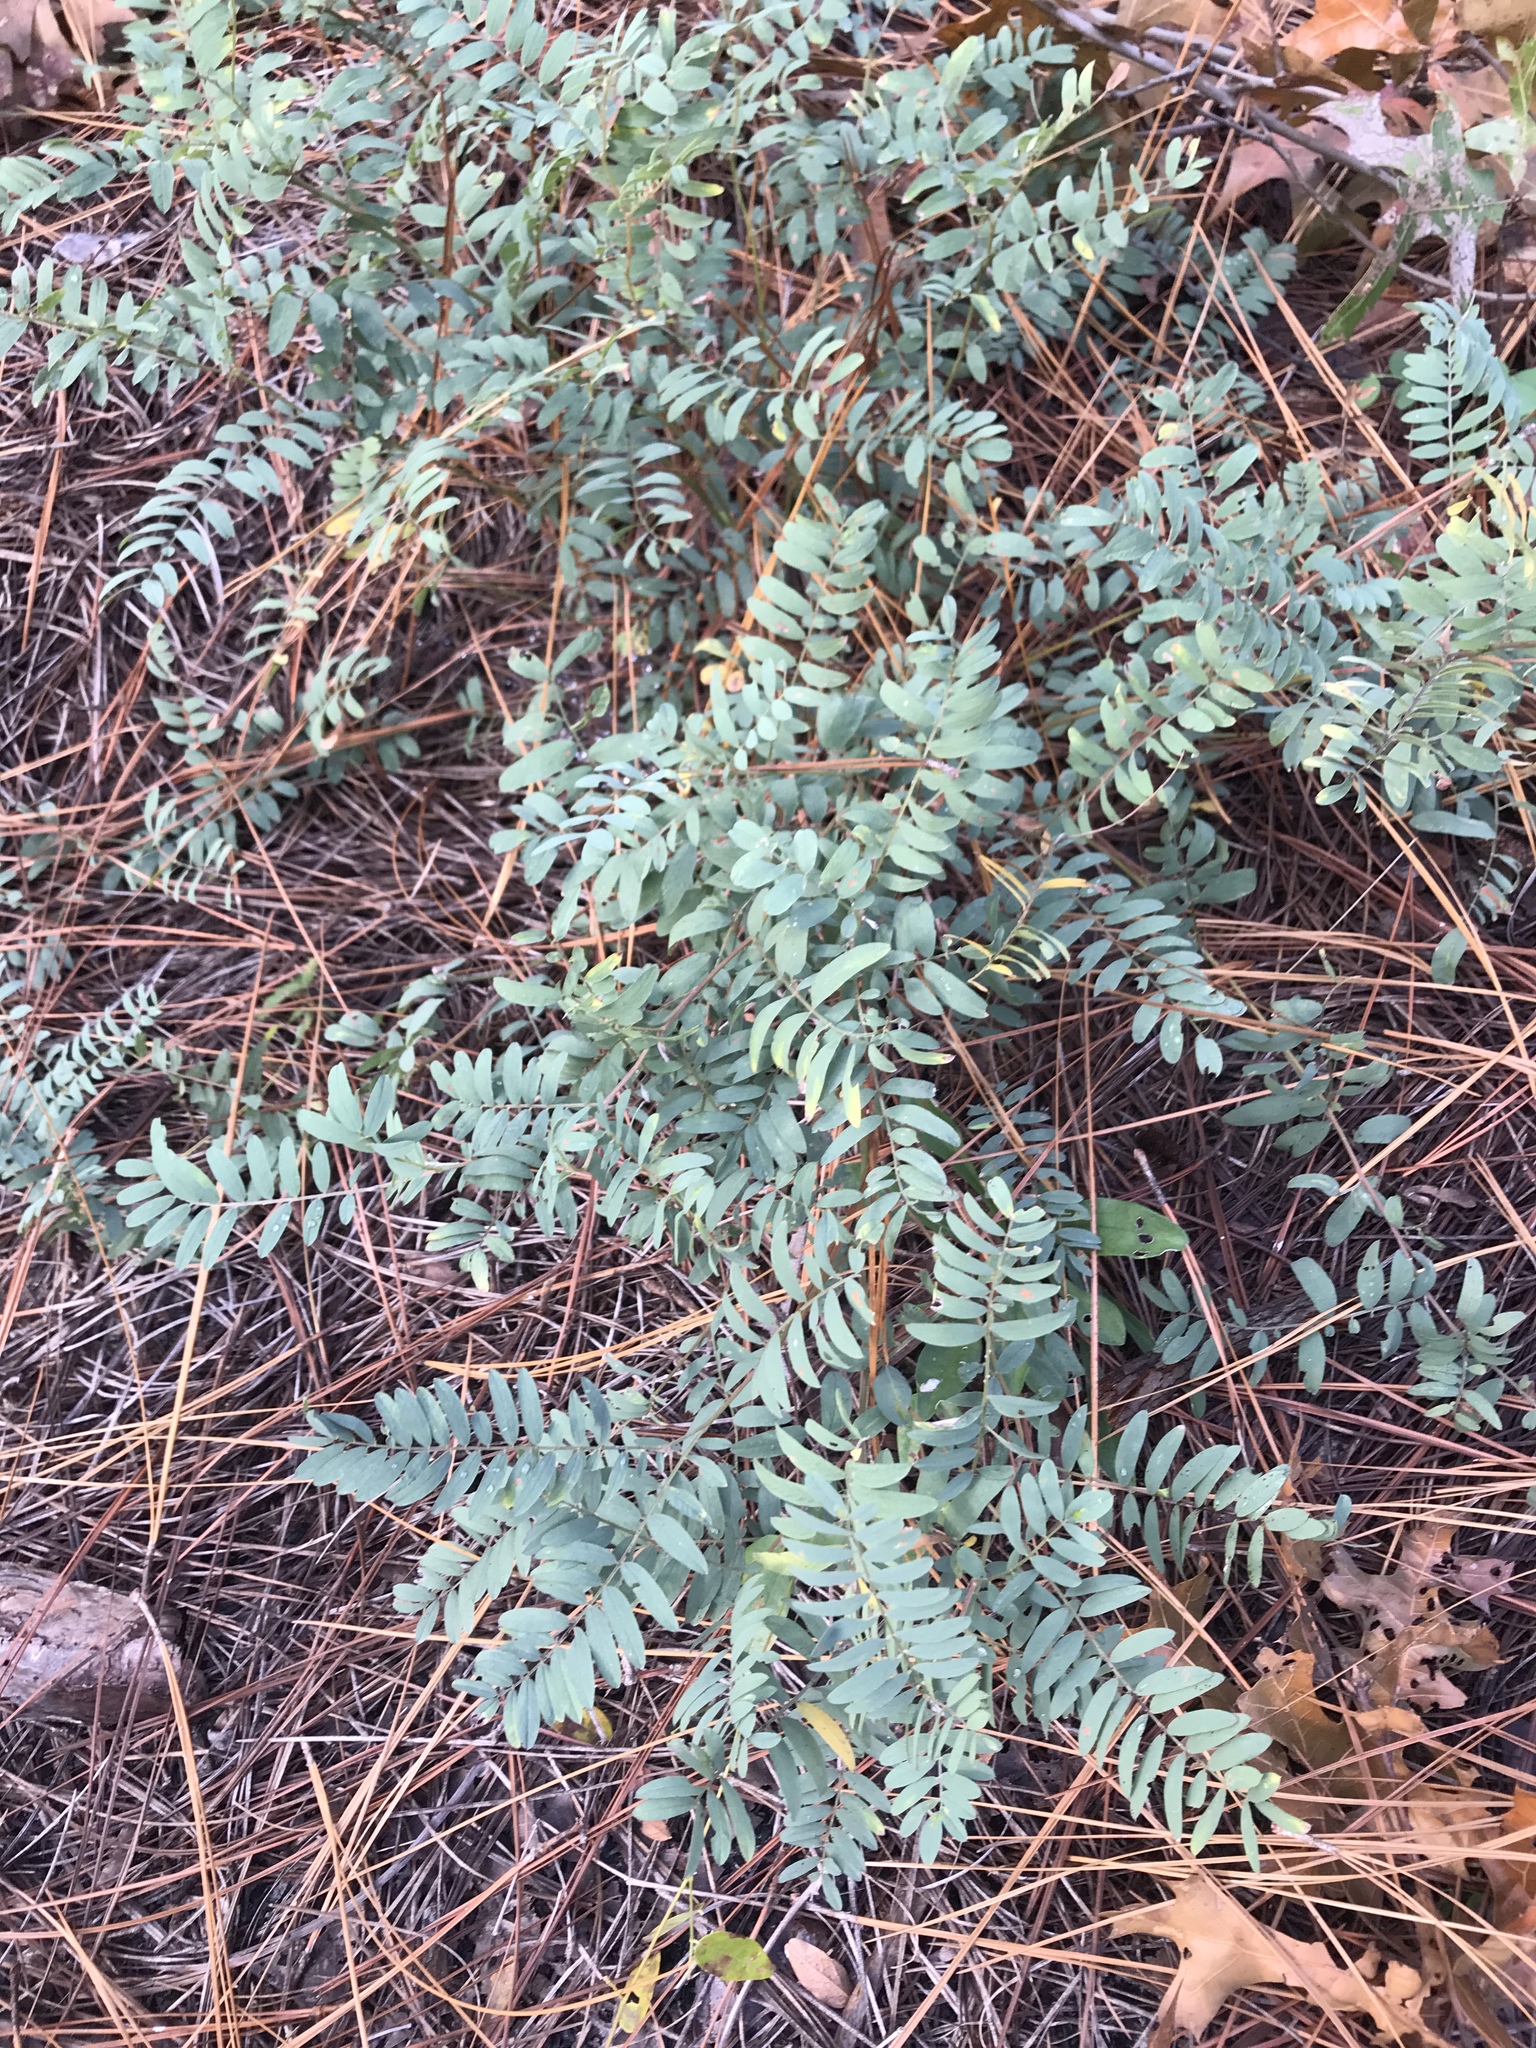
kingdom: Plantae
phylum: Tracheophyta
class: Magnoliopsida
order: Fabales
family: Fabaceae
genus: Tephrosia
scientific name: Tephrosia virginiana
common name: Rabbit-pea
